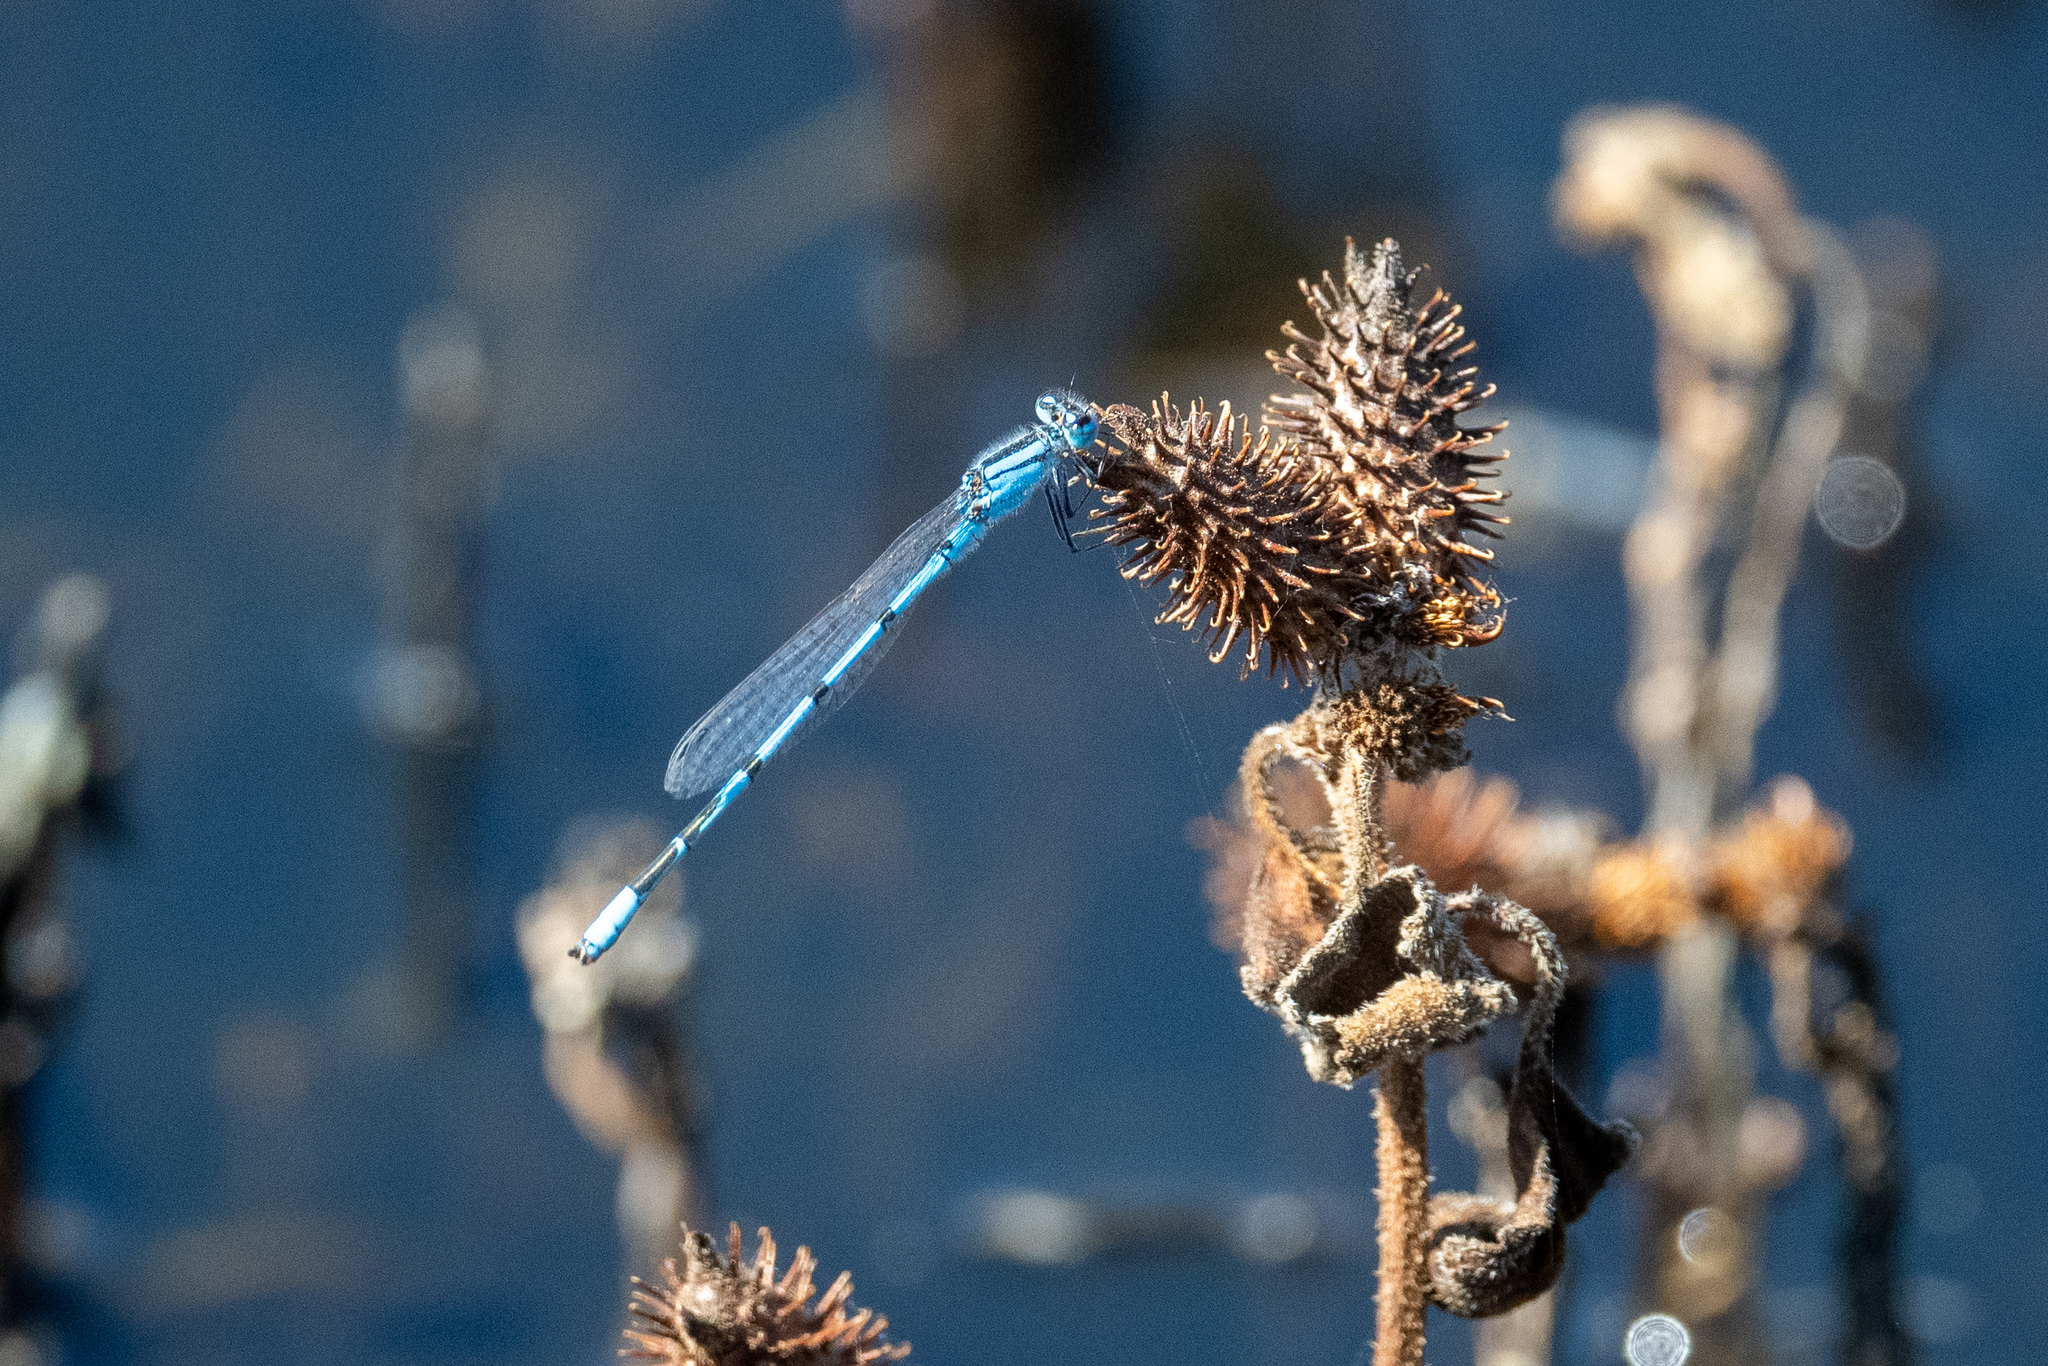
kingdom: Animalia
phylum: Arthropoda
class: Insecta
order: Odonata
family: Coenagrionidae
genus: Enallagma
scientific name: Enallagma civile
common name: Damselfly
